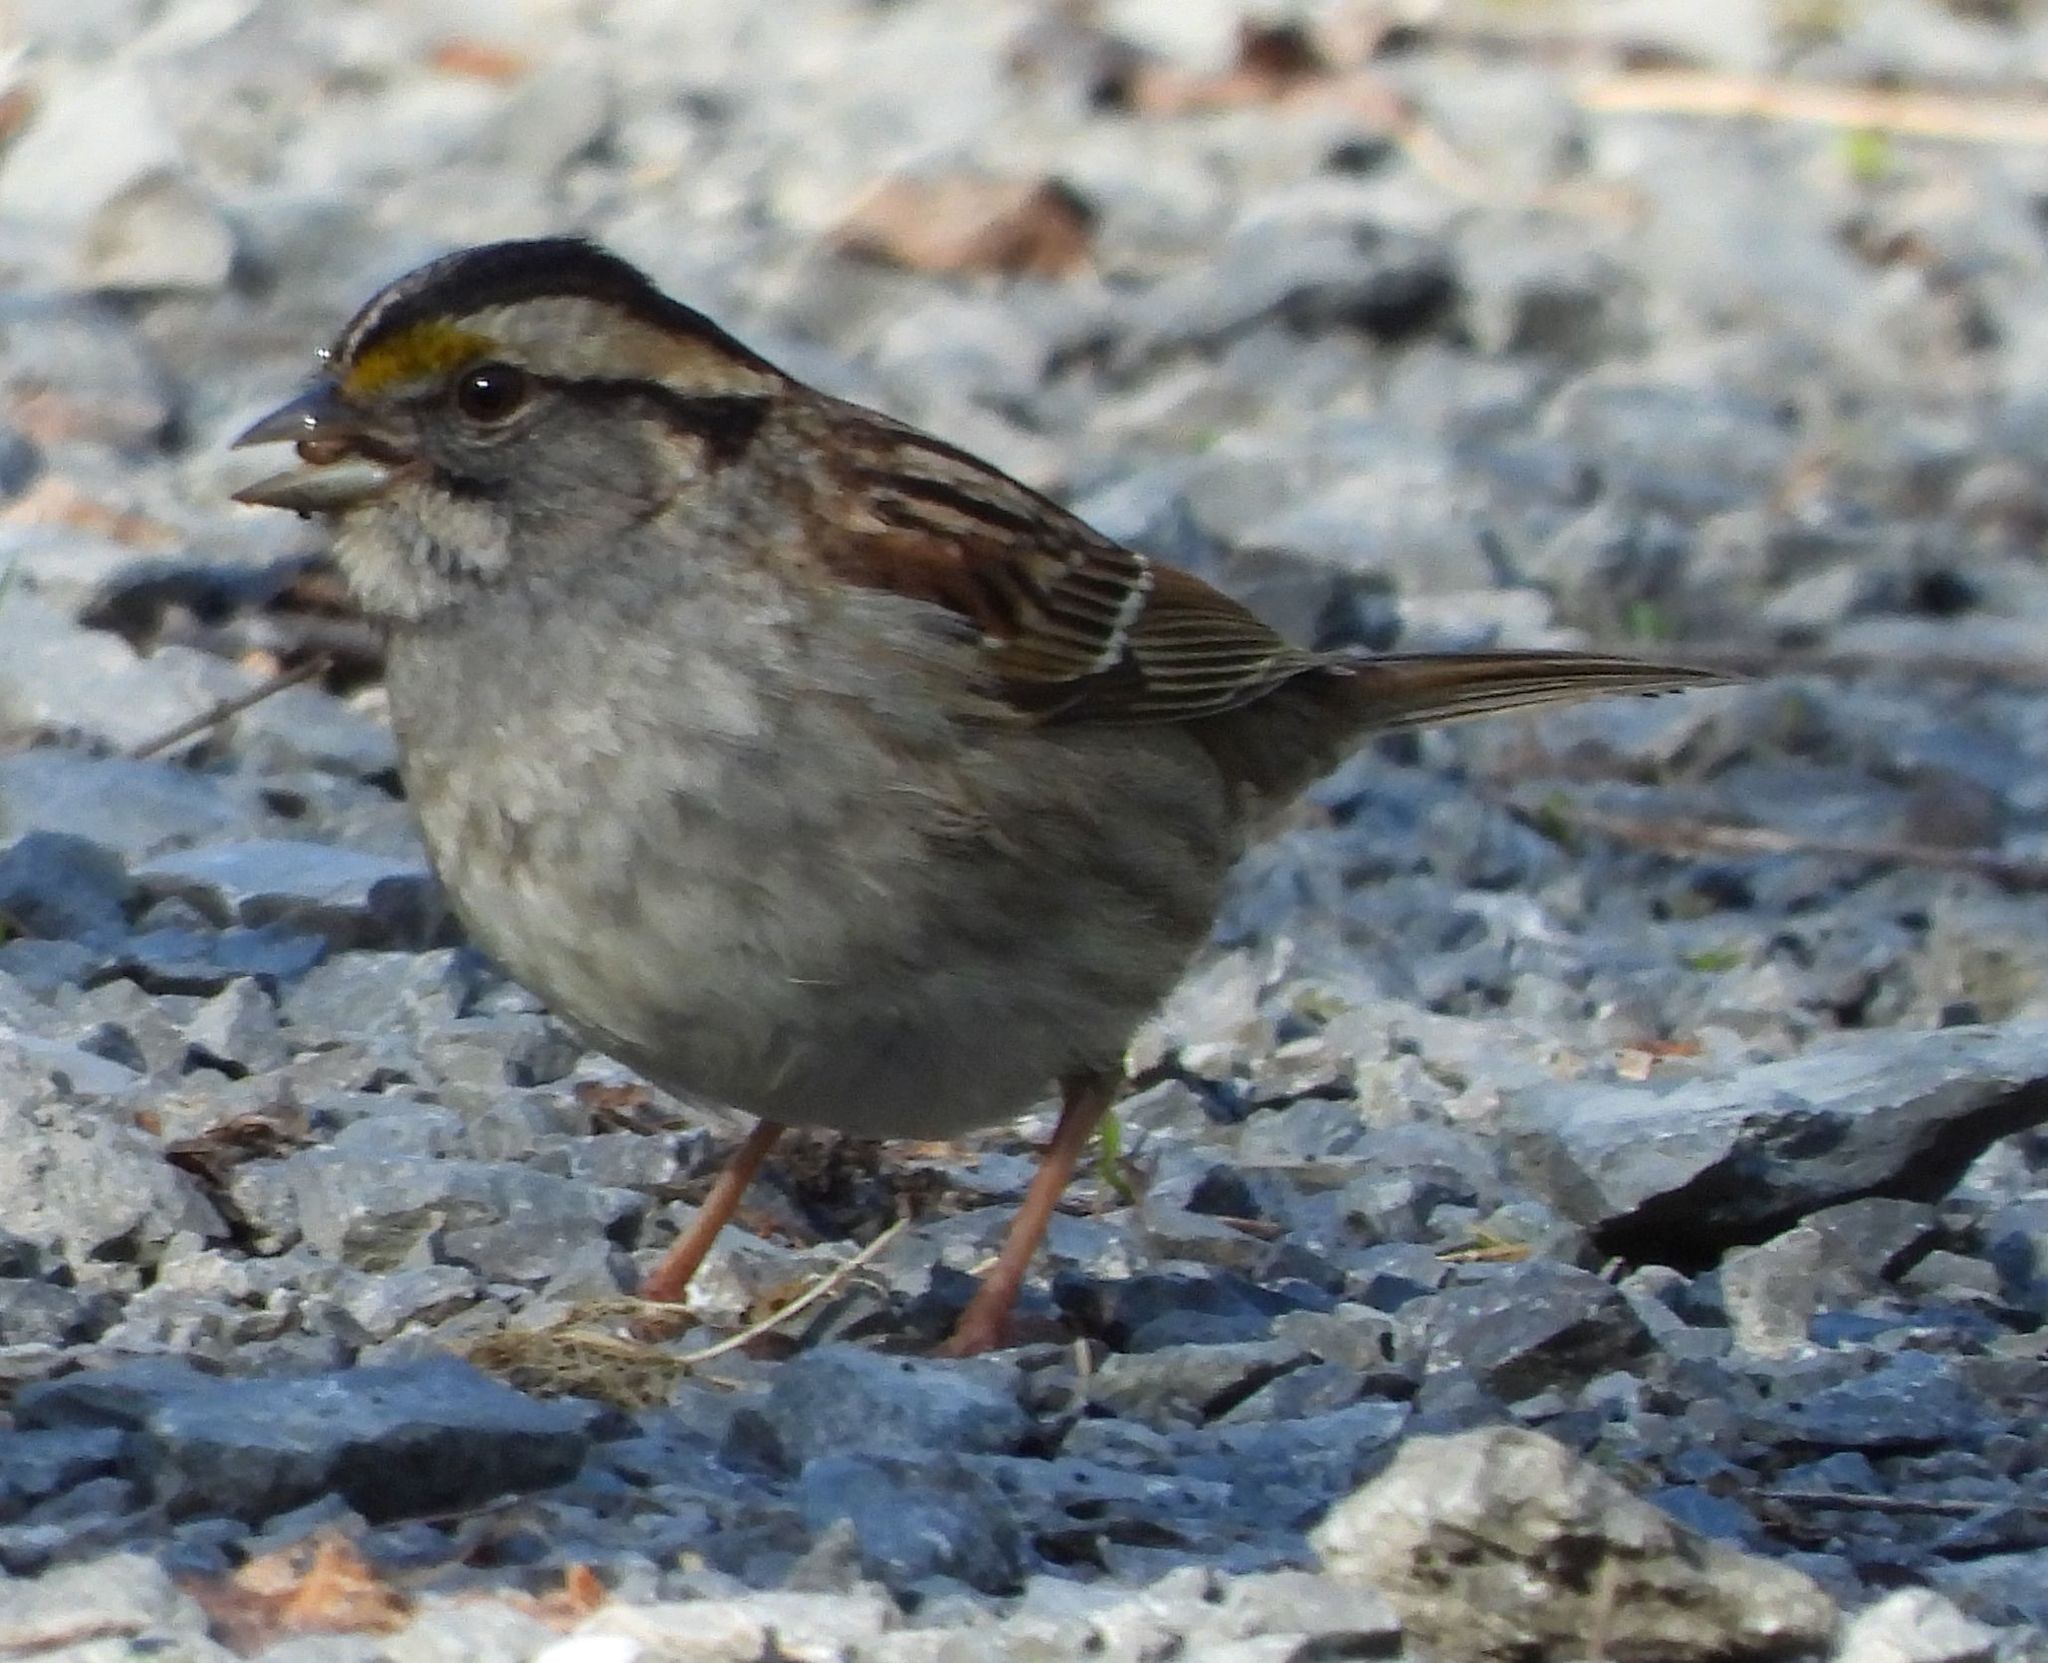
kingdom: Animalia
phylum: Chordata
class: Aves
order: Passeriformes
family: Passerellidae
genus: Zonotrichia
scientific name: Zonotrichia albicollis
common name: White-throated sparrow
